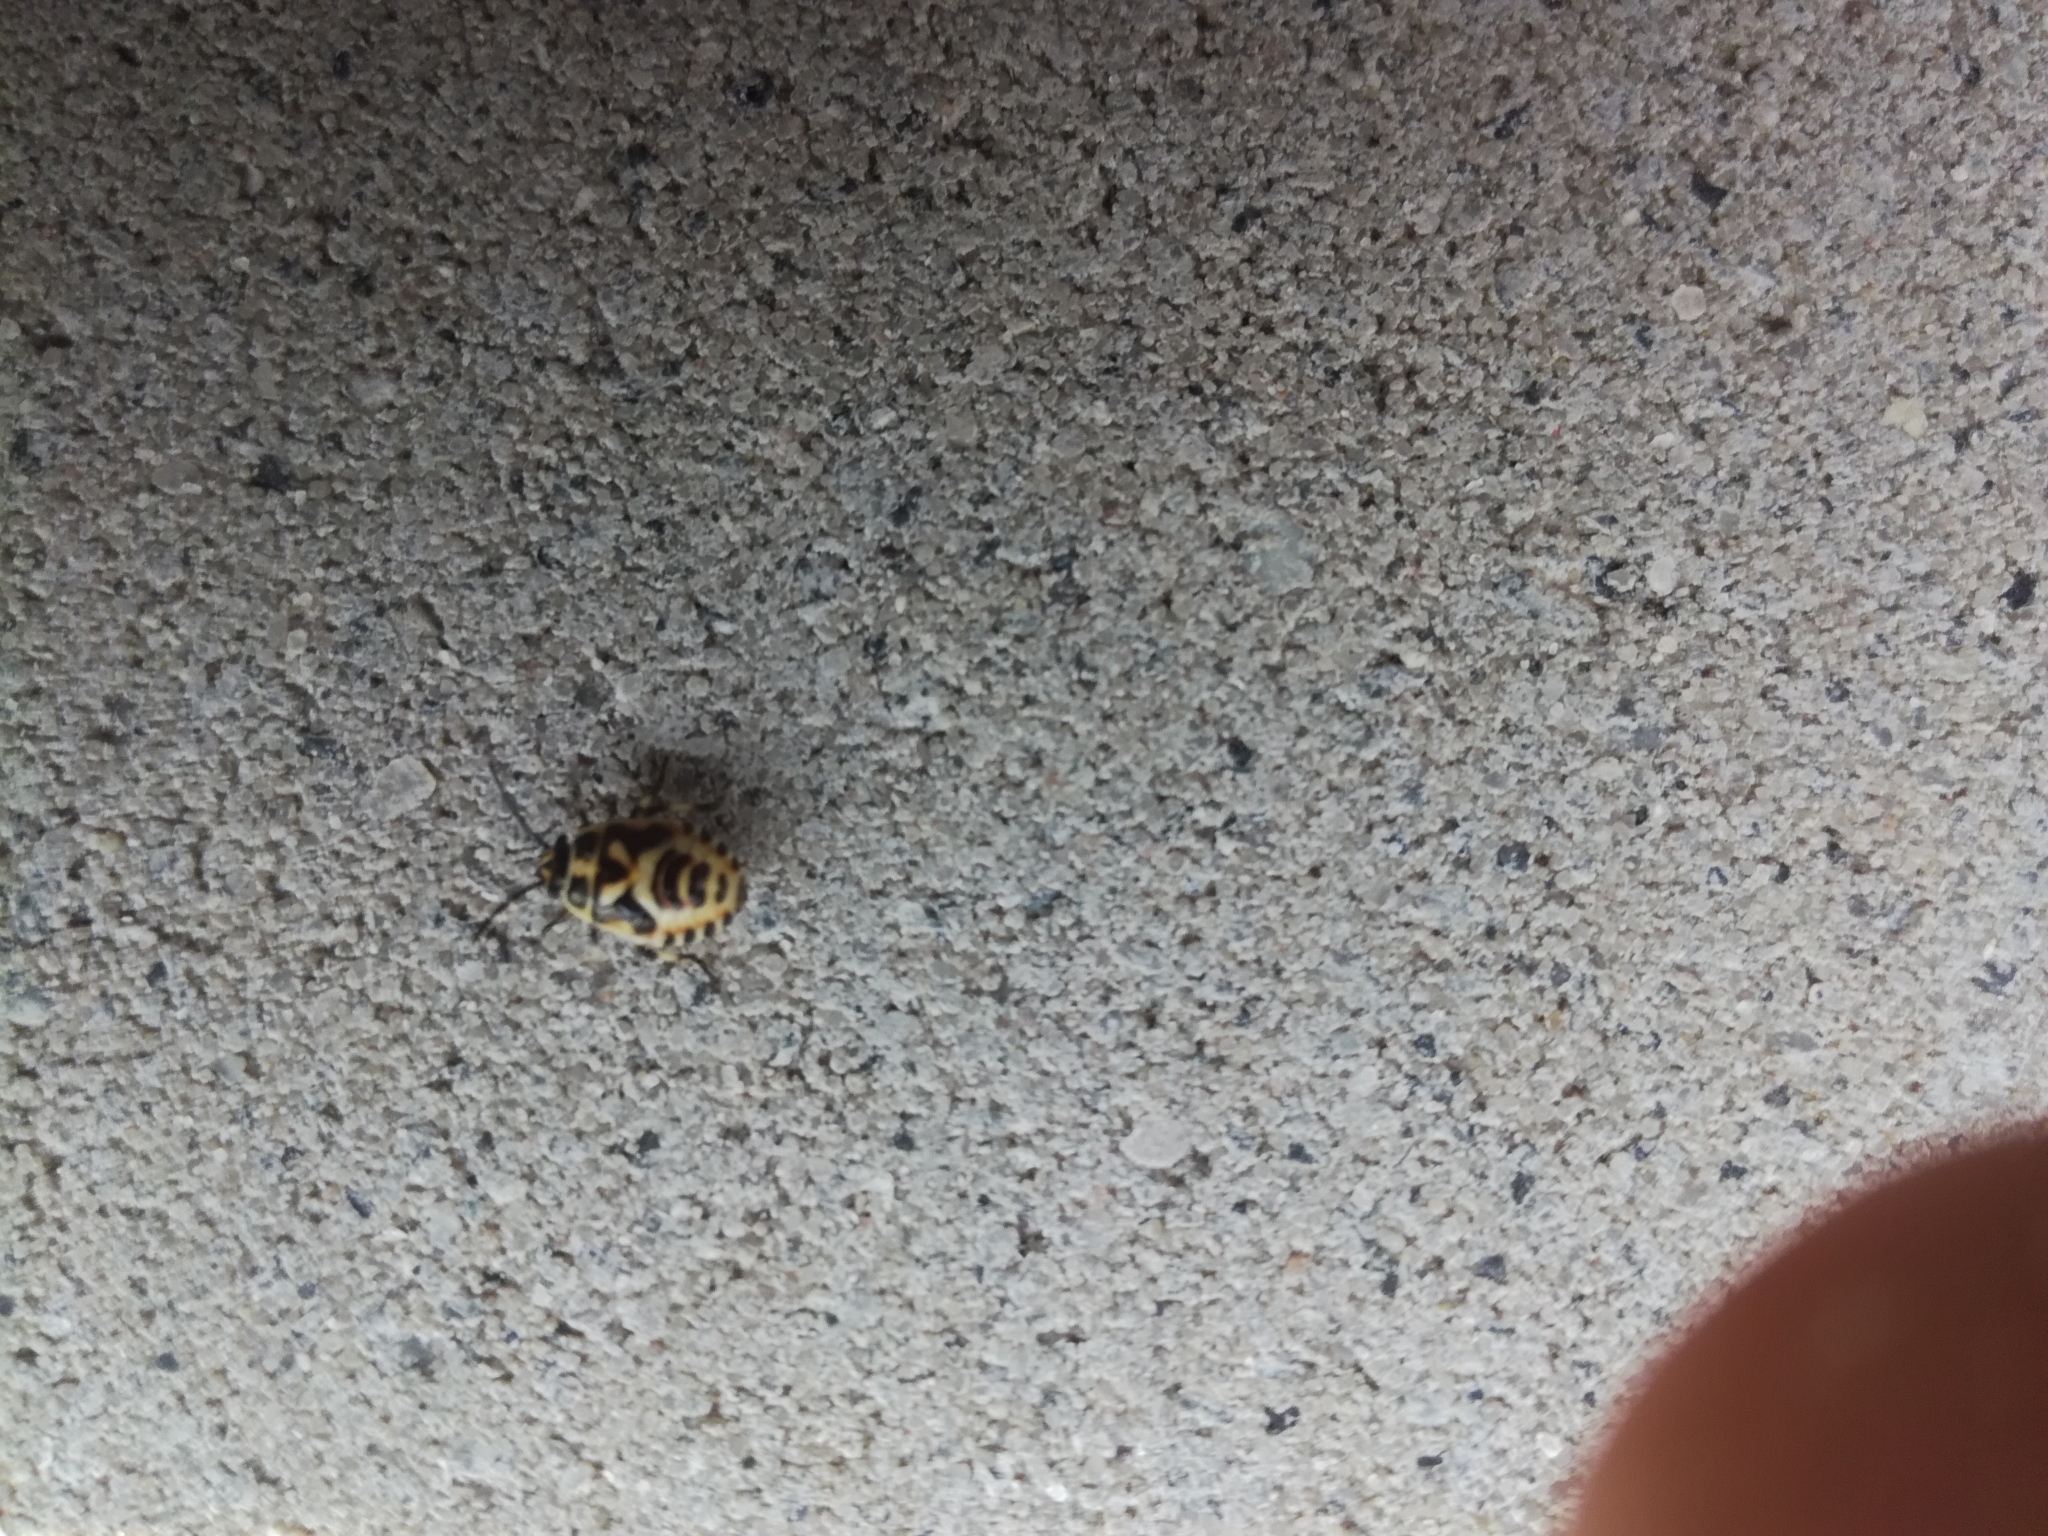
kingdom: Animalia
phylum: Arthropoda
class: Insecta
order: Hemiptera
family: Pentatomidae
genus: Eurydema
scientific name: Eurydema oleracea
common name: Cabbage bug
